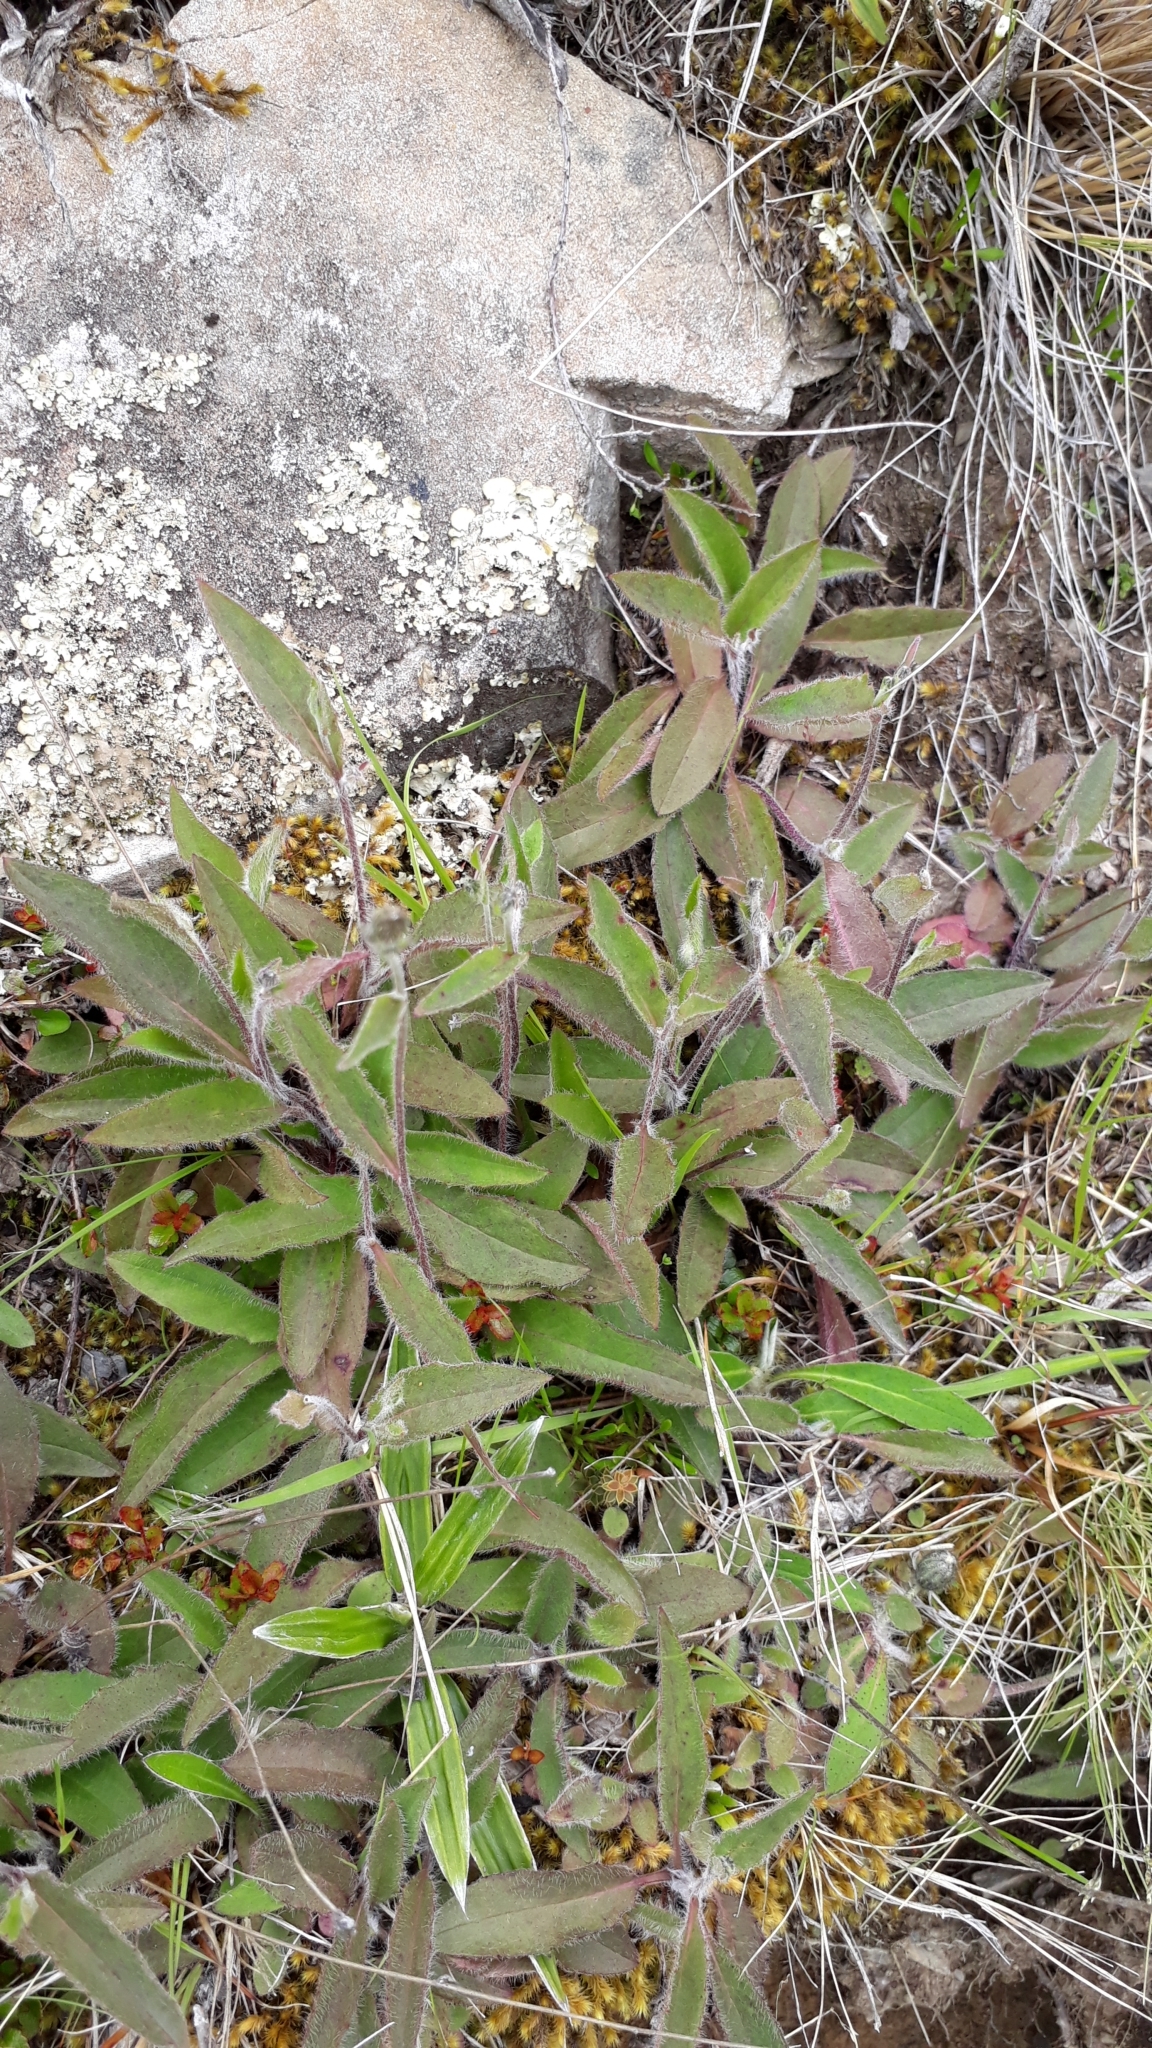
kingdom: Plantae
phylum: Tracheophyta
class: Magnoliopsida
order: Asterales
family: Asteraceae
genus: Hieracium
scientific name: Hieracium lepidulum
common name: Irregular-toothed hawkweed
